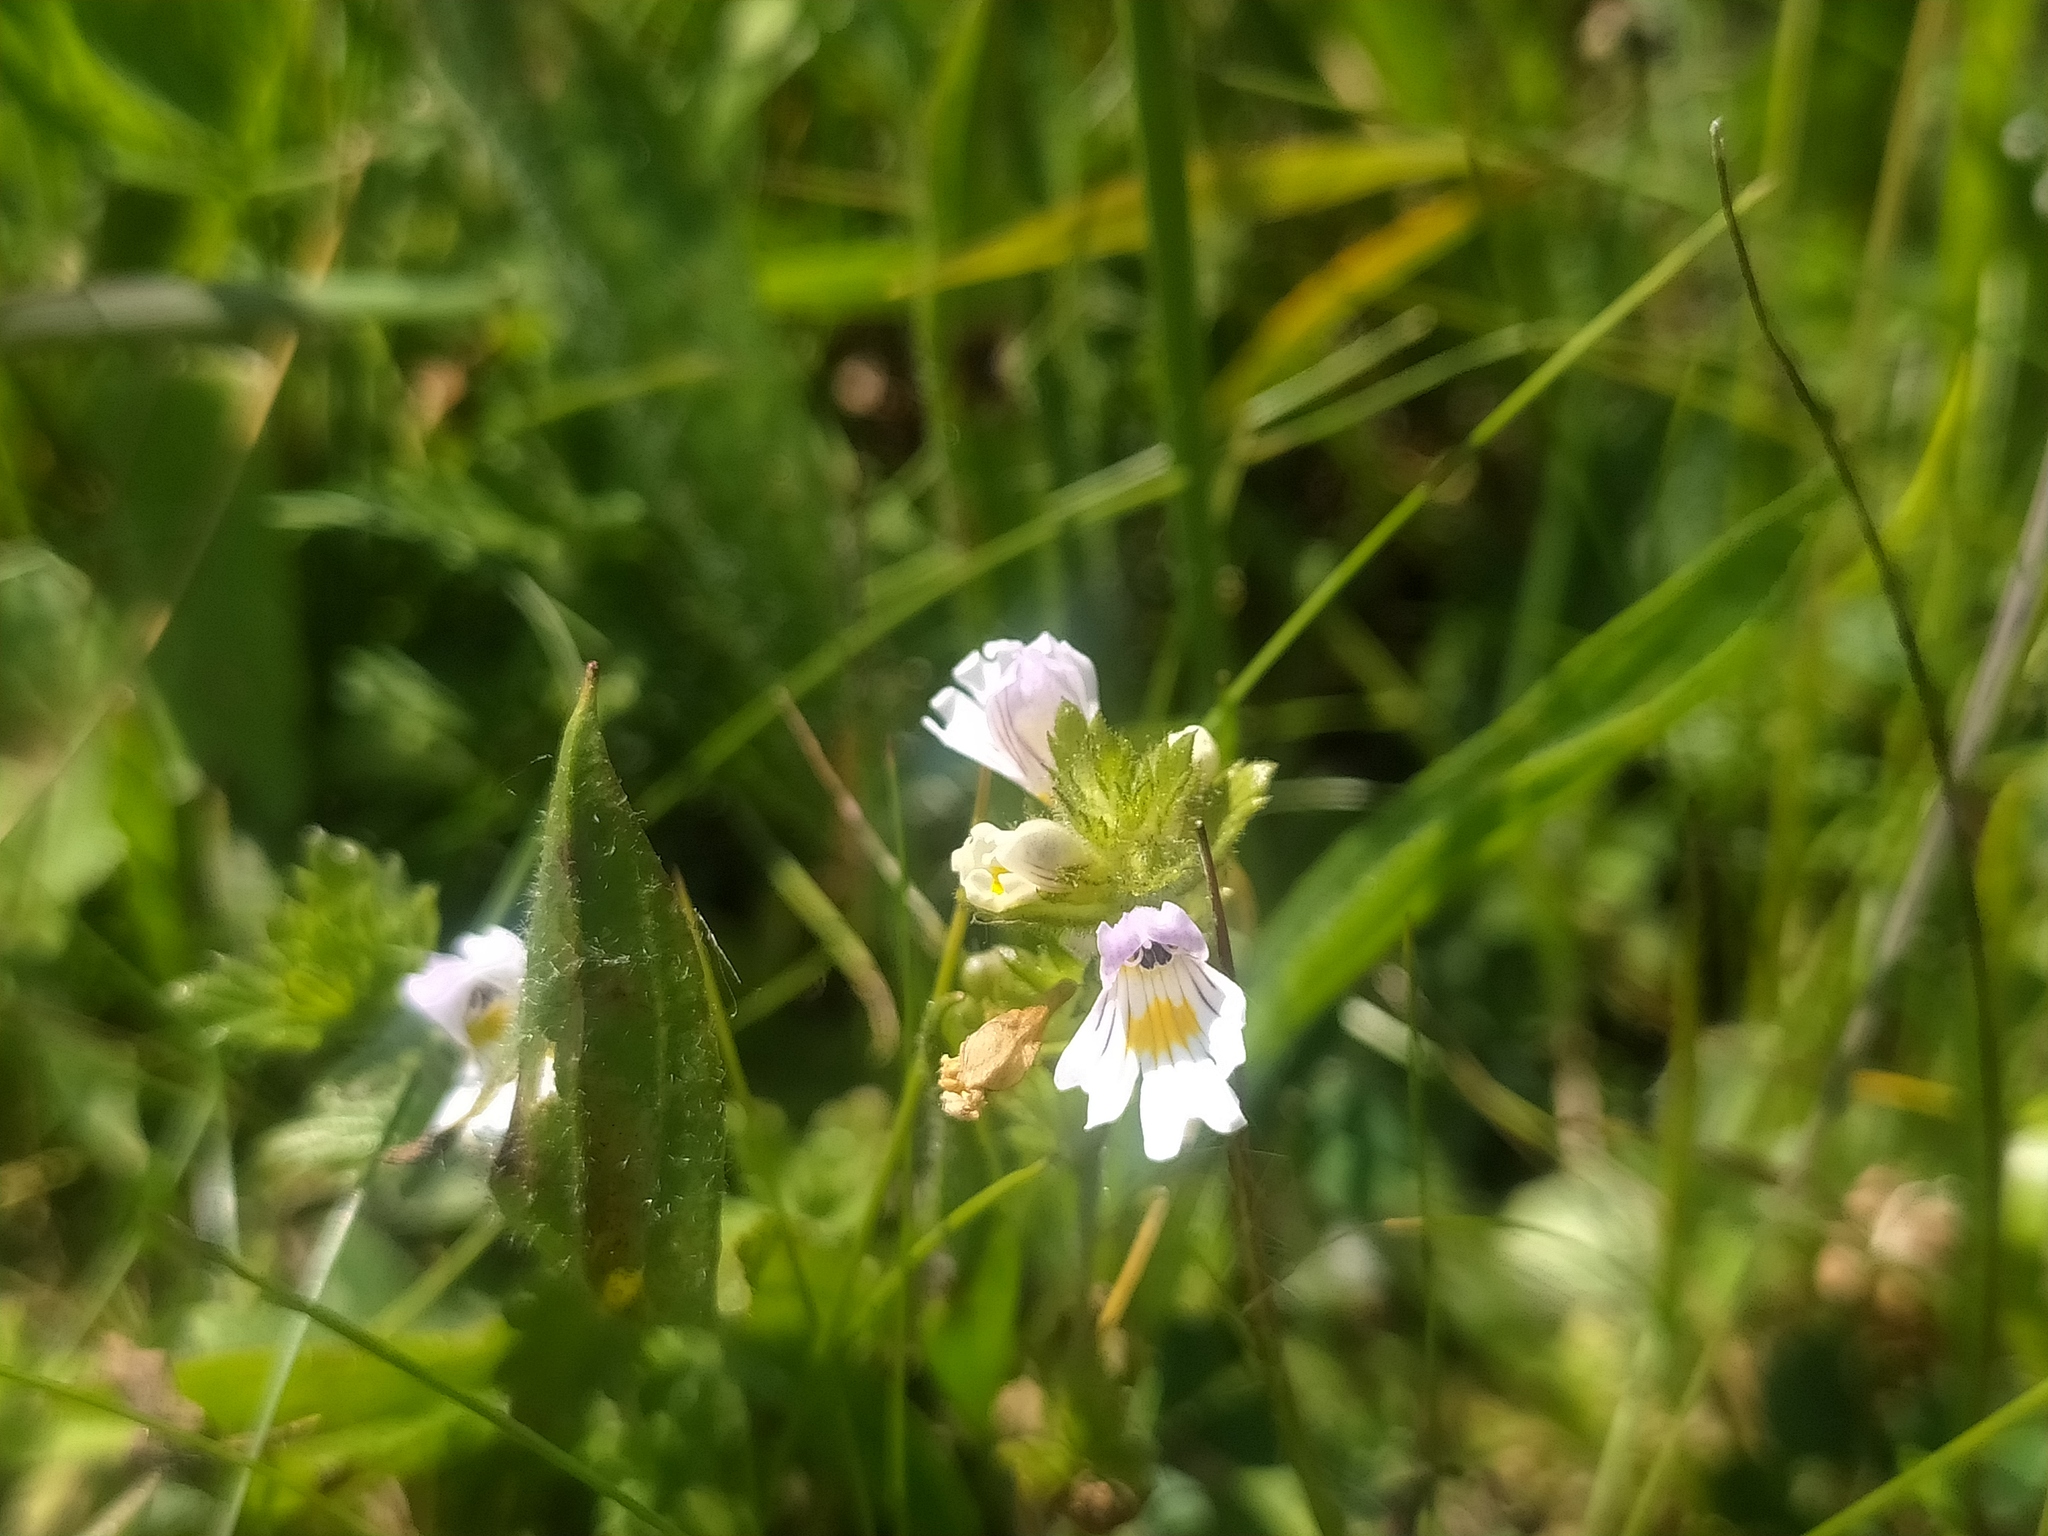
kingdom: Plantae
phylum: Tracheophyta
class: Magnoliopsida
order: Lamiales
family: Orobanchaceae
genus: Euphrasia
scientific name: Euphrasia officinalis
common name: Eyebright
